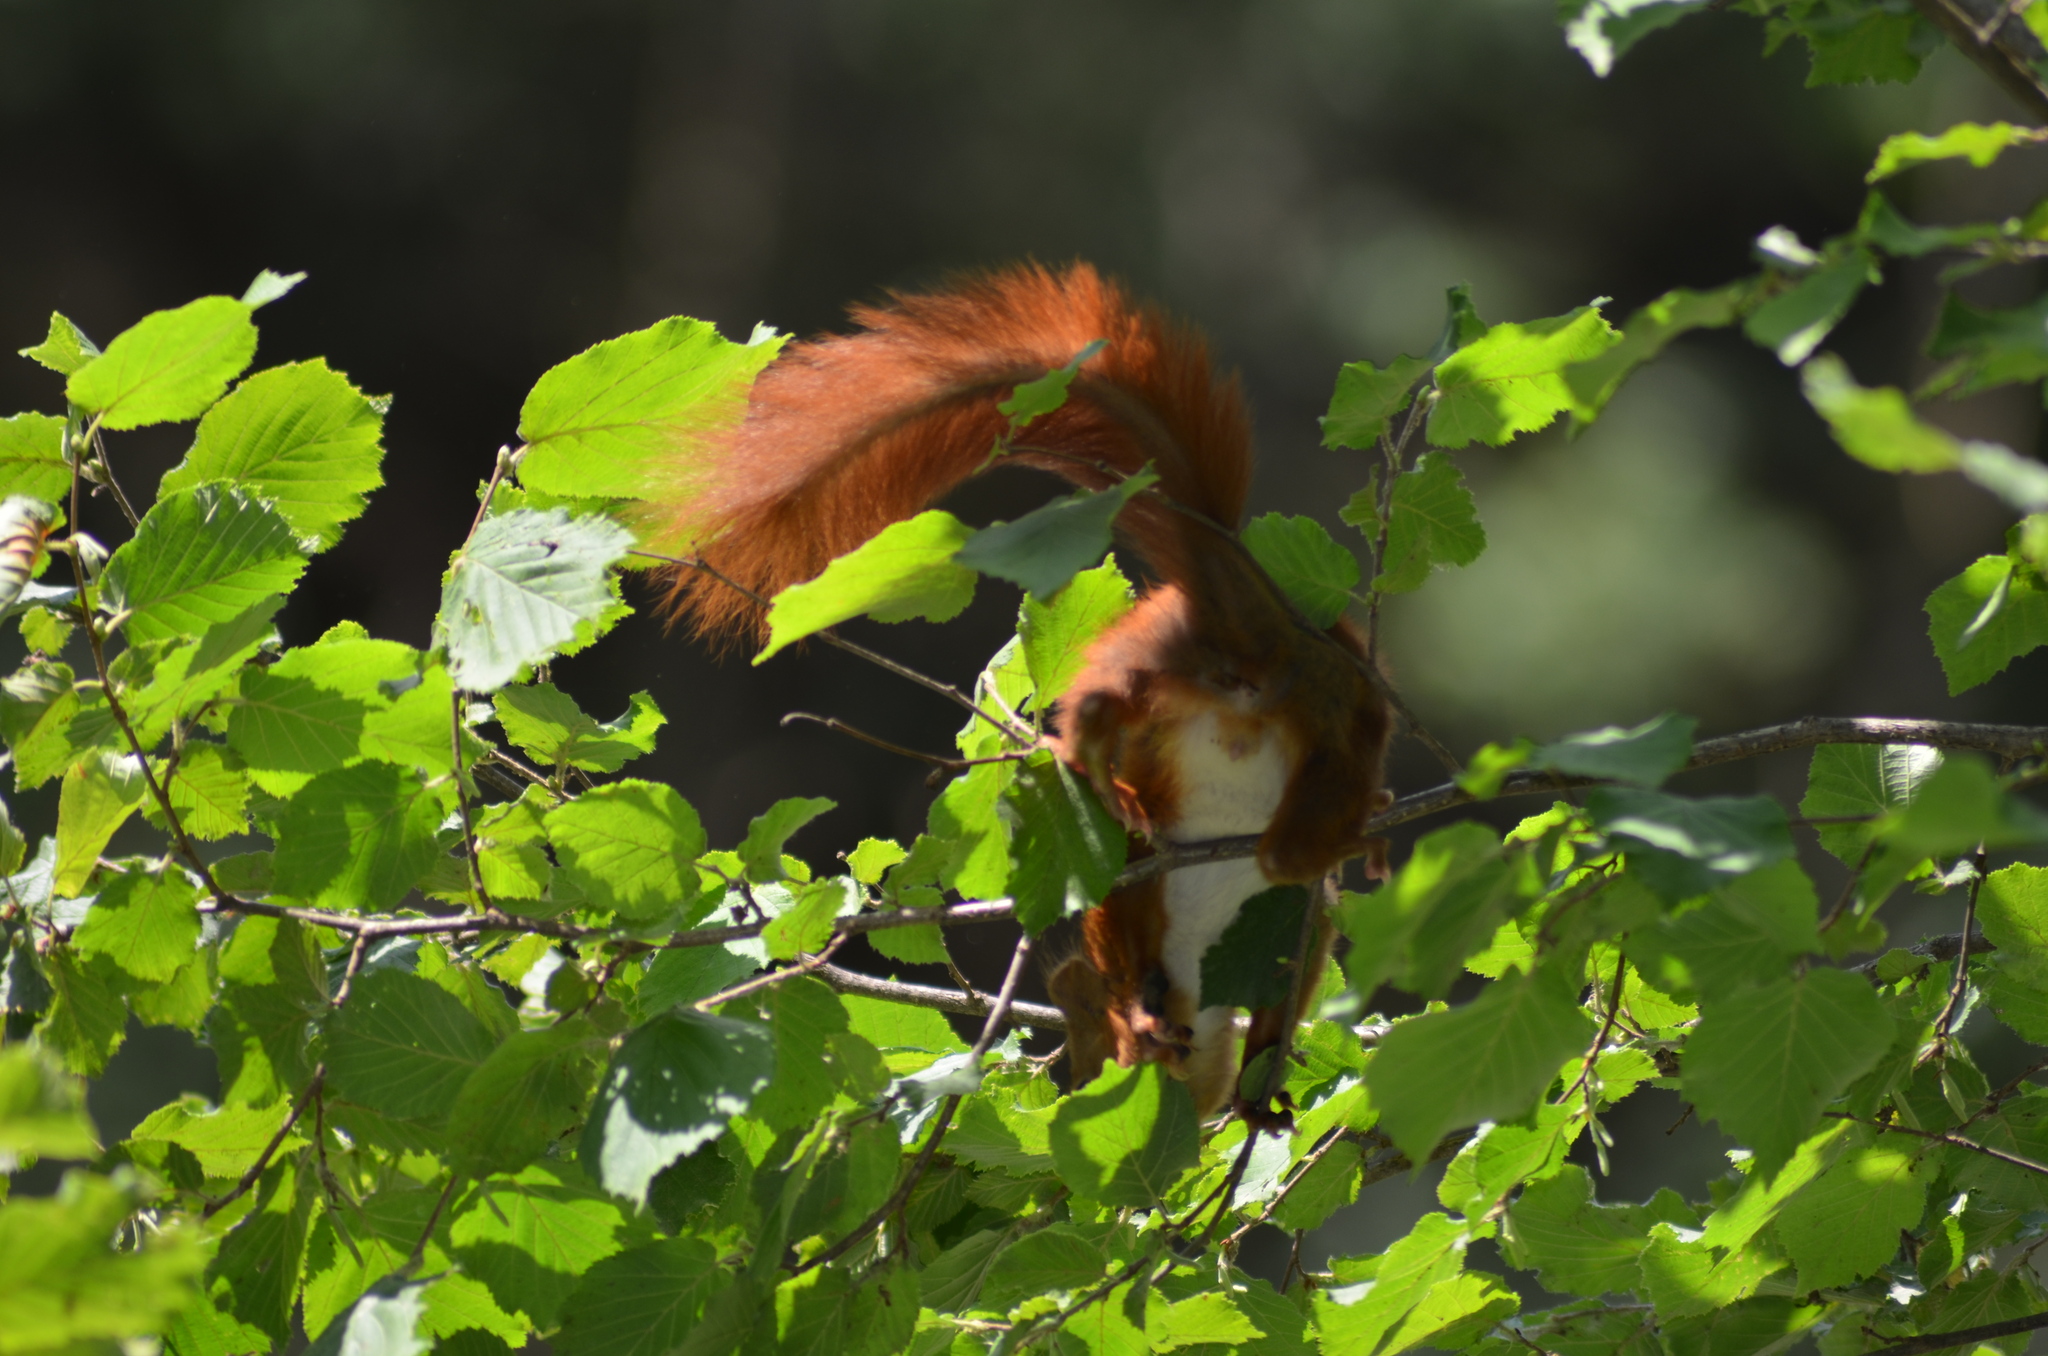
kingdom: Animalia
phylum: Chordata
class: Mammalia
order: Rodentia
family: Sciuridae
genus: Sciurus
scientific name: Sciurus vulgaris
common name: Eurasian red squirrel
